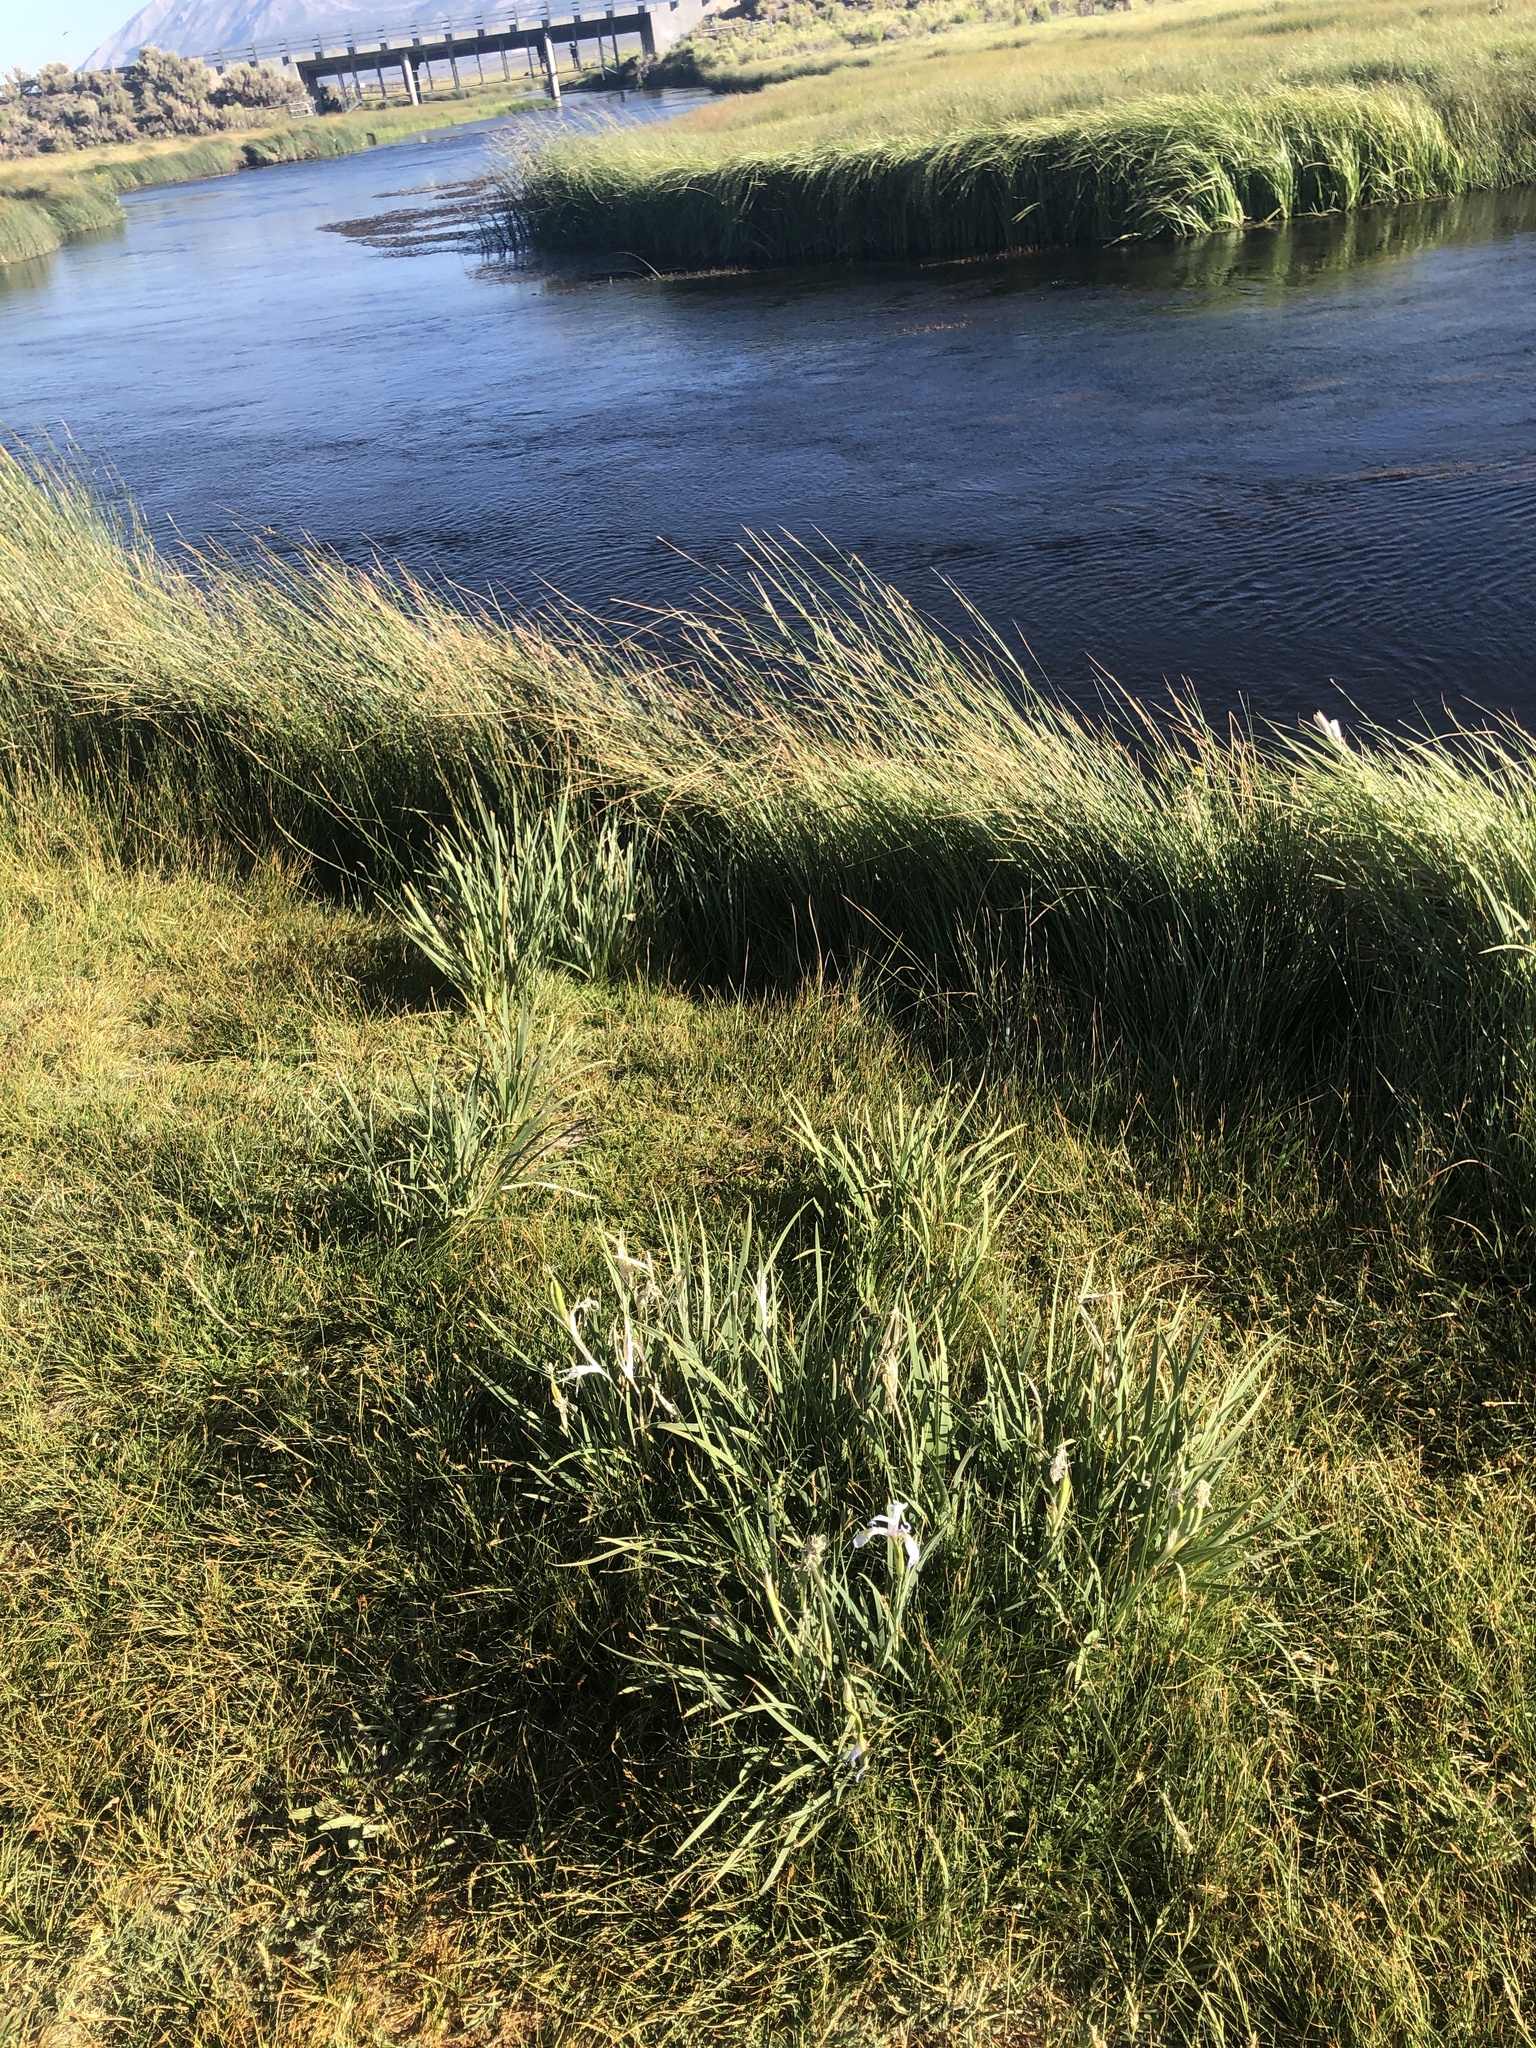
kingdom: Plantae
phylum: Tracheophyta
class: Liliopsida
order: Asparagales
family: Iridaceae
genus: Iris
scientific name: Iris missouriensis
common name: Rocky mountain iris
